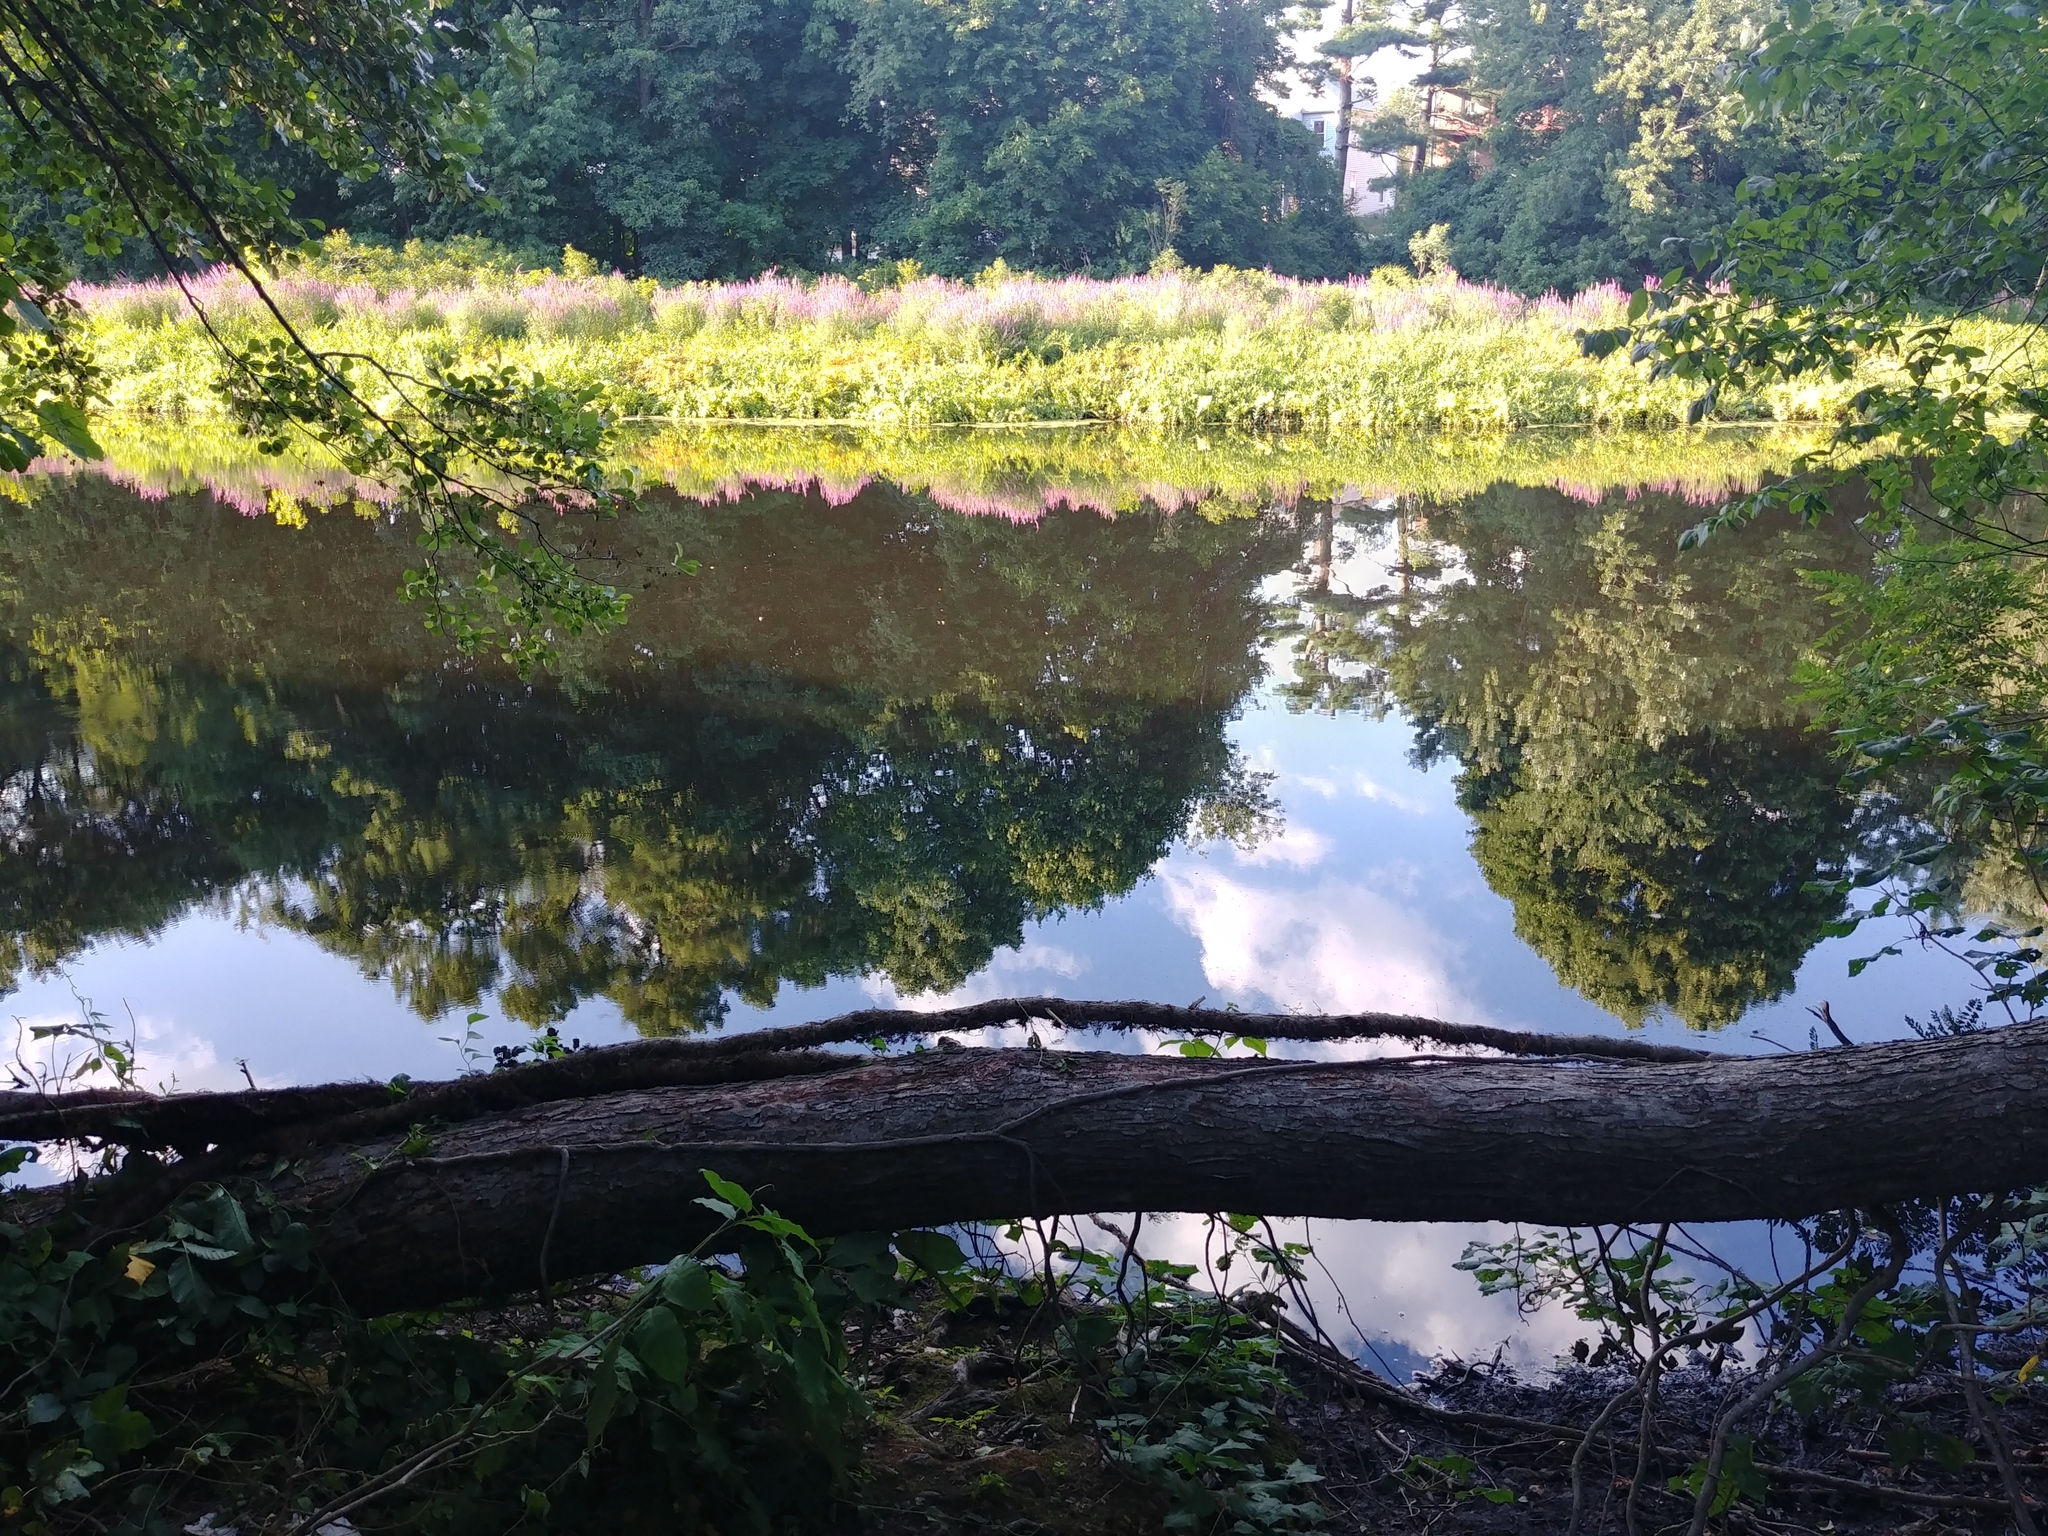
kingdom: Plantae
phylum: Tracheophyta
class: Magnoliopsida
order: Myrtales
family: Lythraceae
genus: Lythrum
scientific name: Lythrum salicaria
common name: Purple loosestrife
